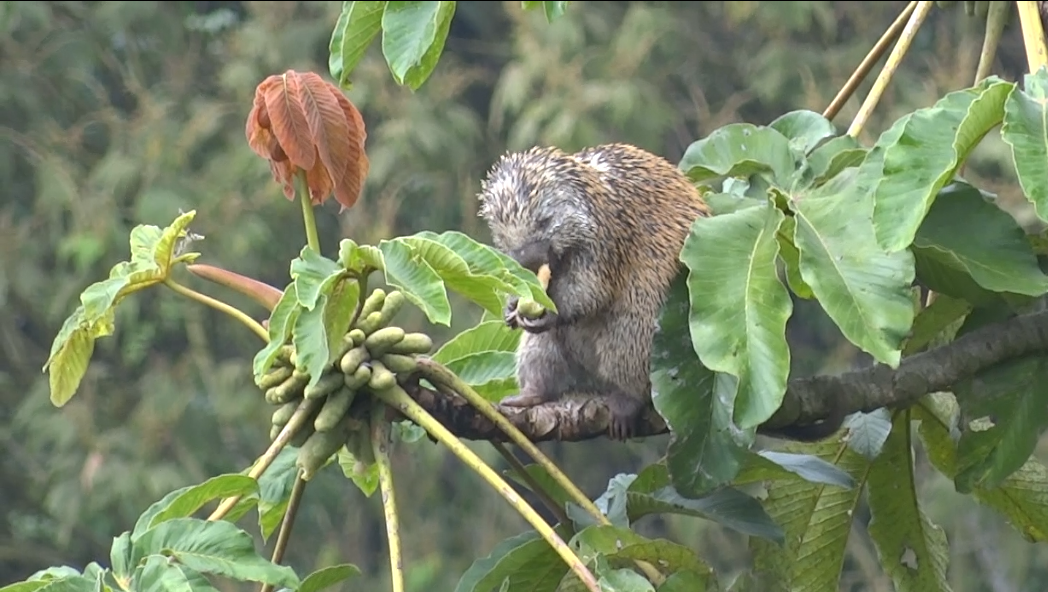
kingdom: Animalia
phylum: Chordata
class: Mammalia
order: Rodentia
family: Erethizontidae
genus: Echinoprocta
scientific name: Echinoprocta rufescens
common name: Stump-tailed porcupine
